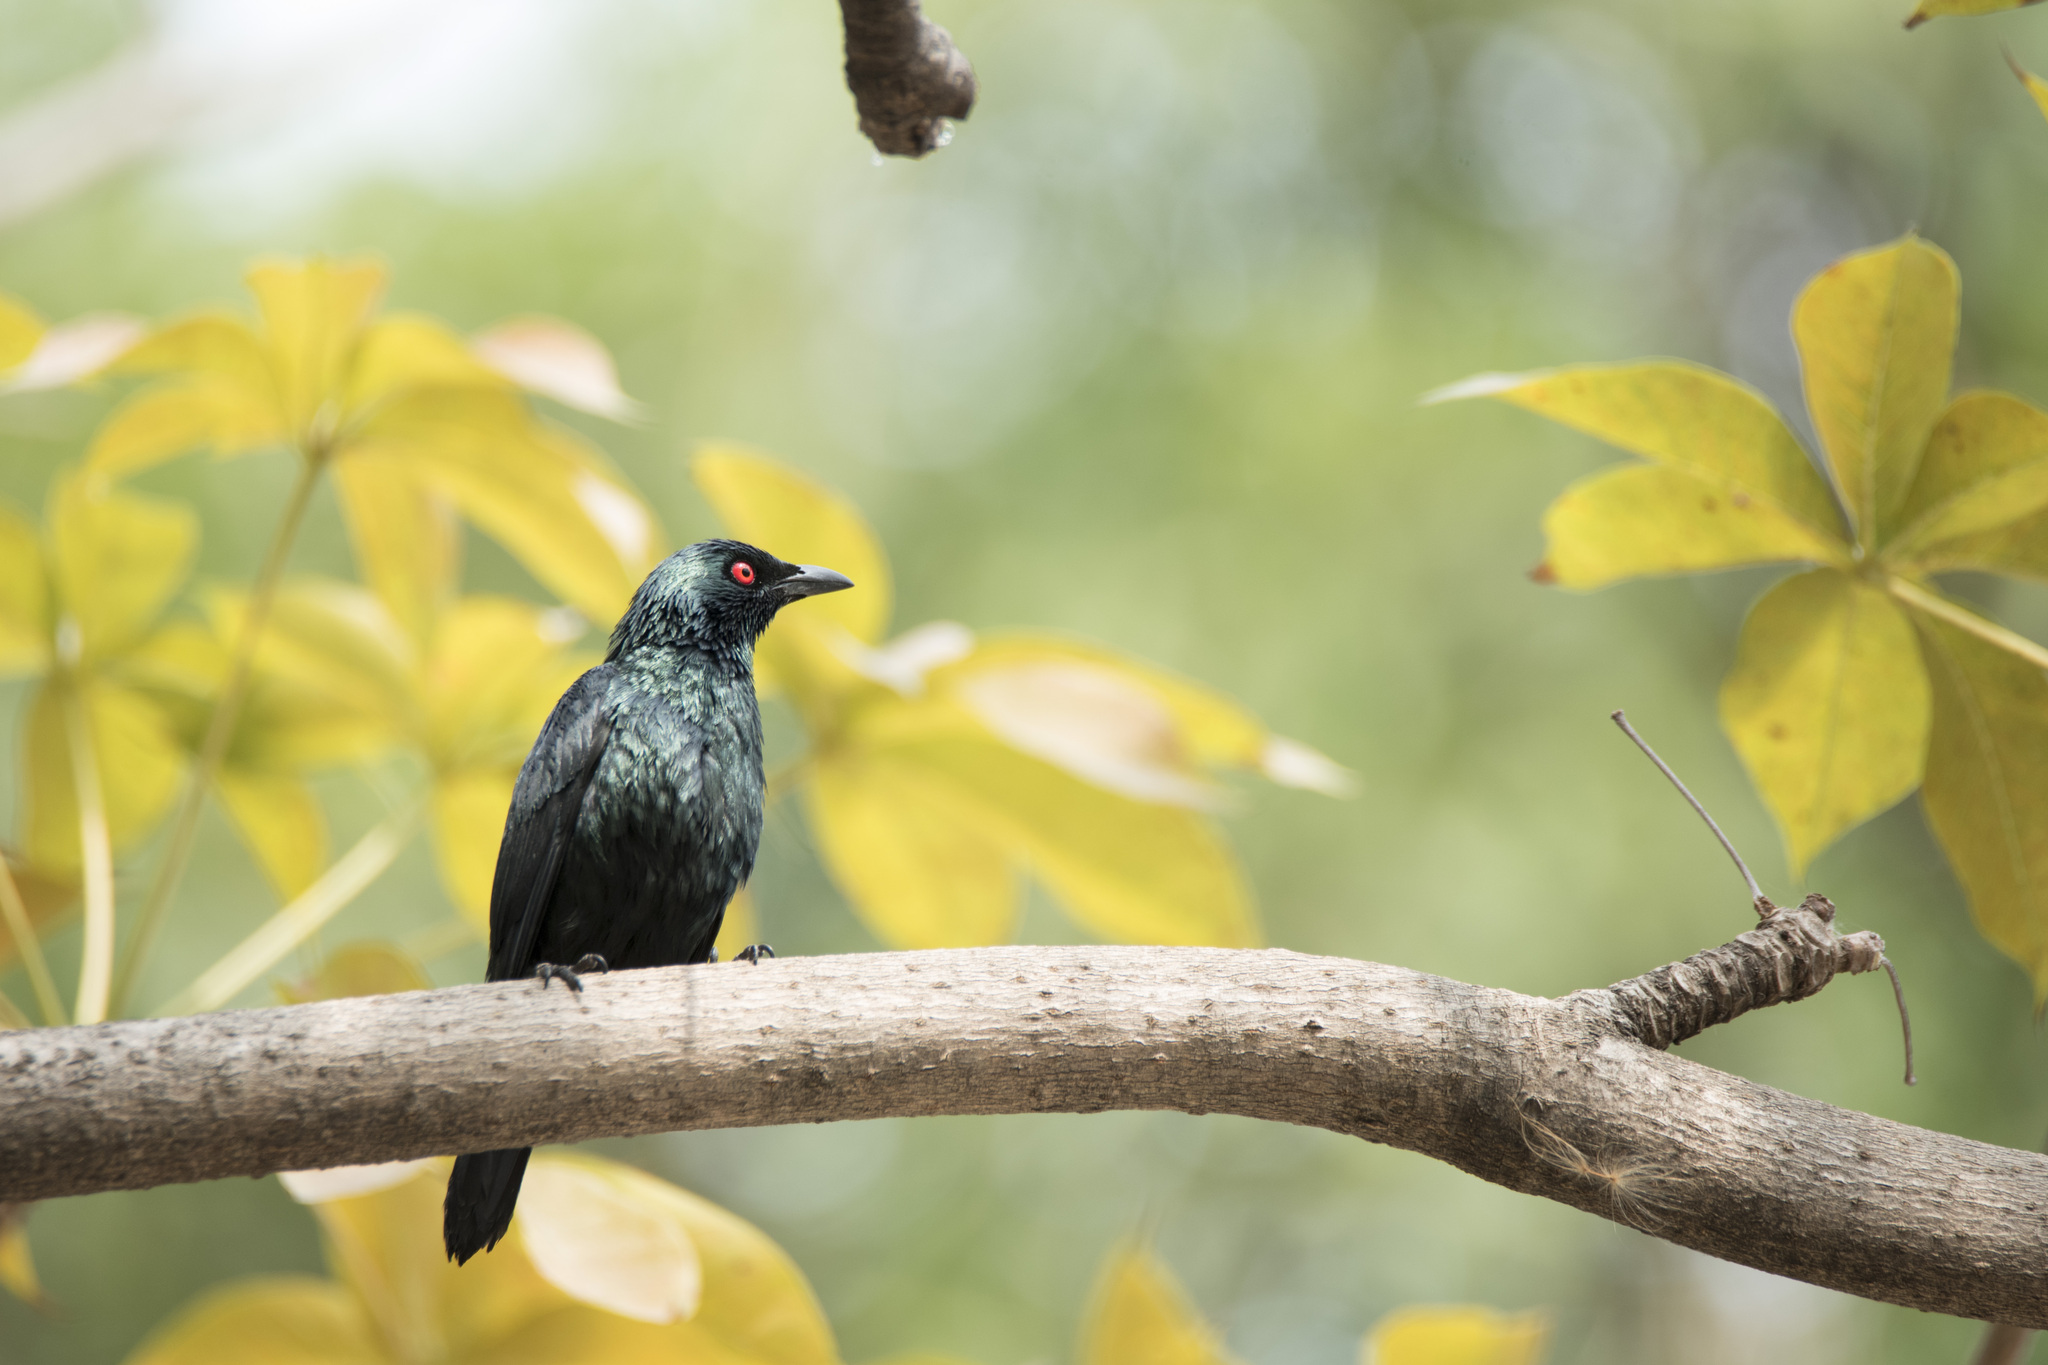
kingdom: Animalia
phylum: Chordata
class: Aves
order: Passeriformes
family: Sturnidae
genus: Aplonis
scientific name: Aplonis panayensis
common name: Asian glossy starling
